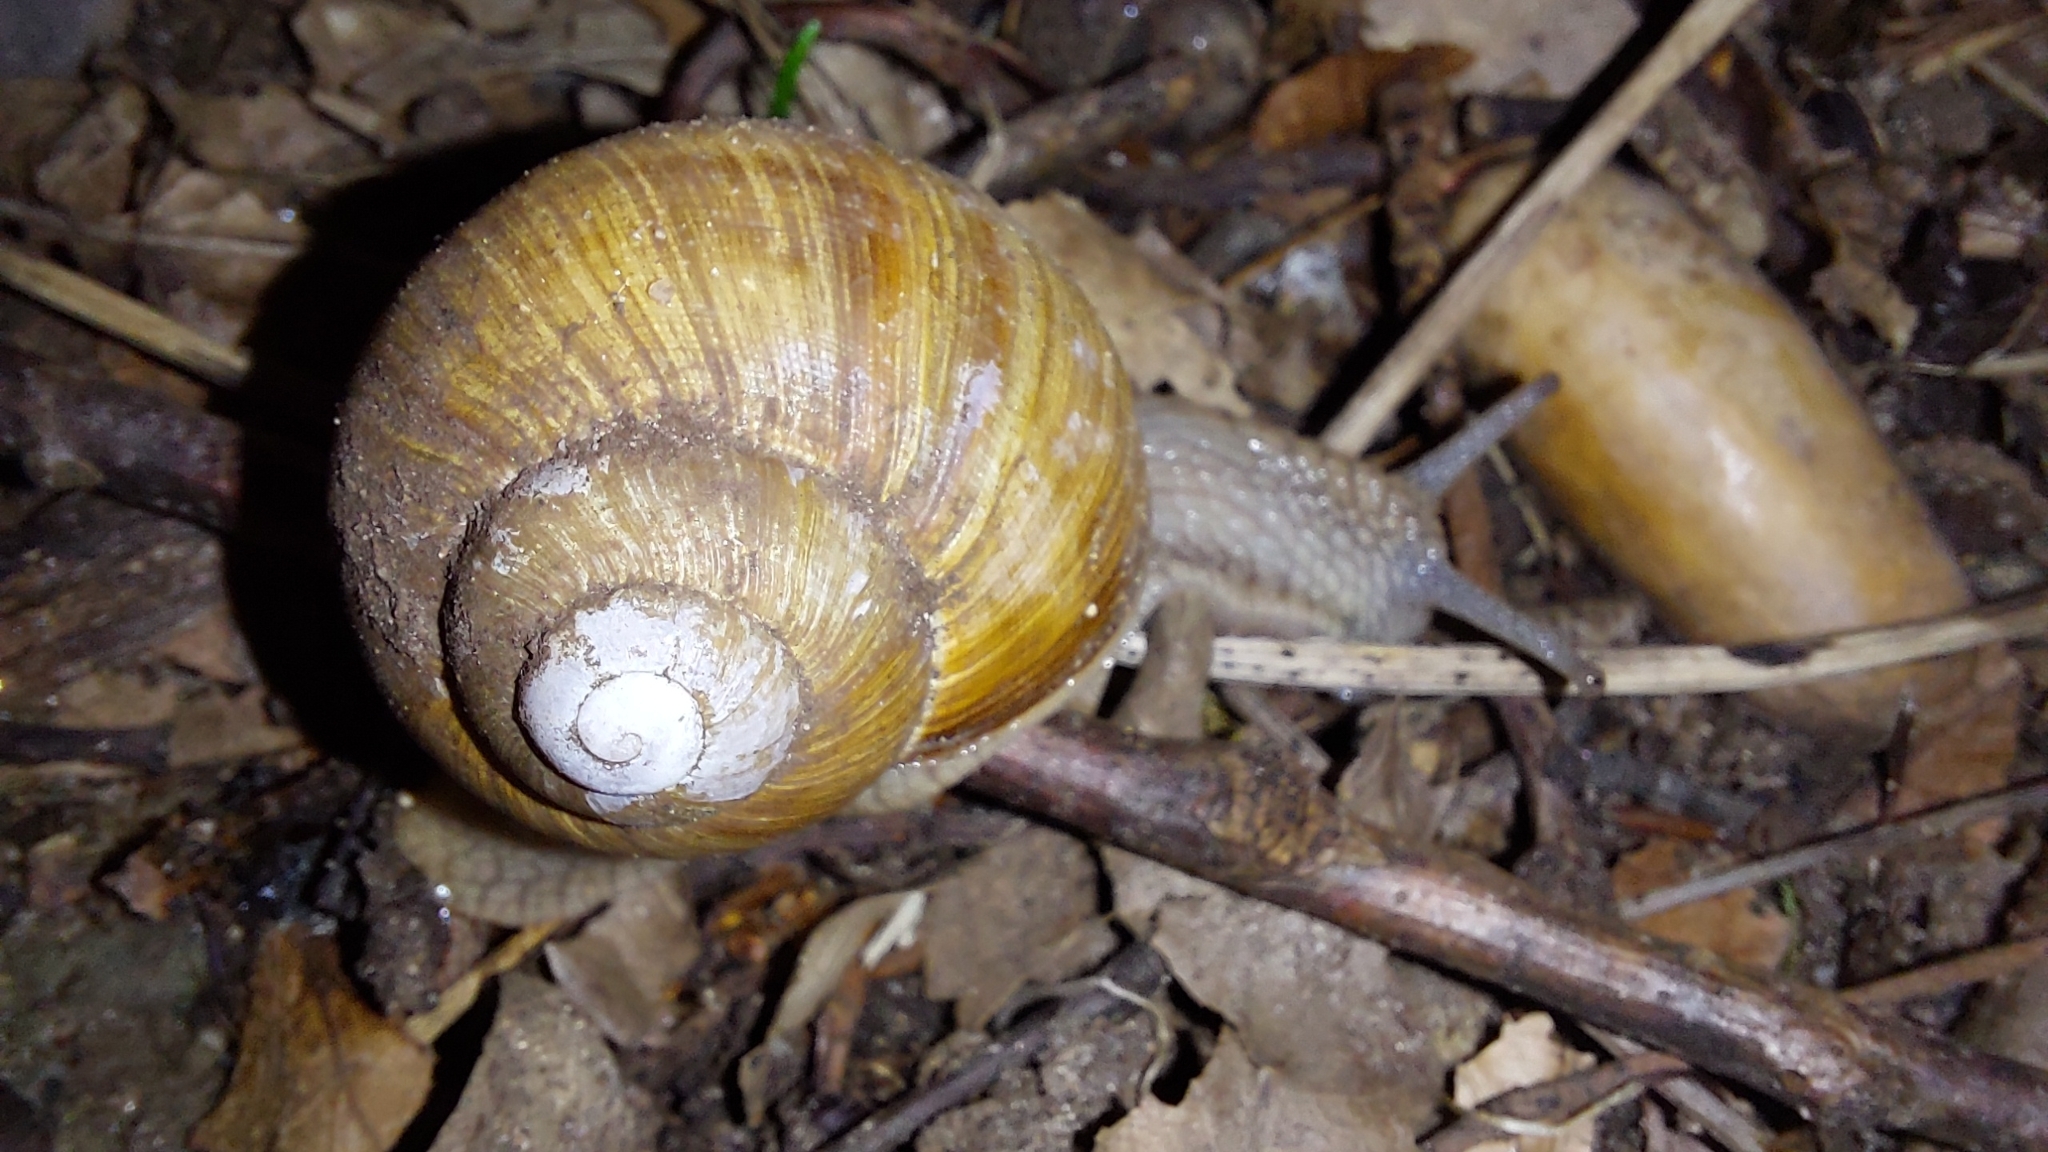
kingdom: Animalia
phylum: Mollusca
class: Gastropoda
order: Stylommatophora
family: Helicidae
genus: Helix
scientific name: Helix pomatia
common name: Roman snail
